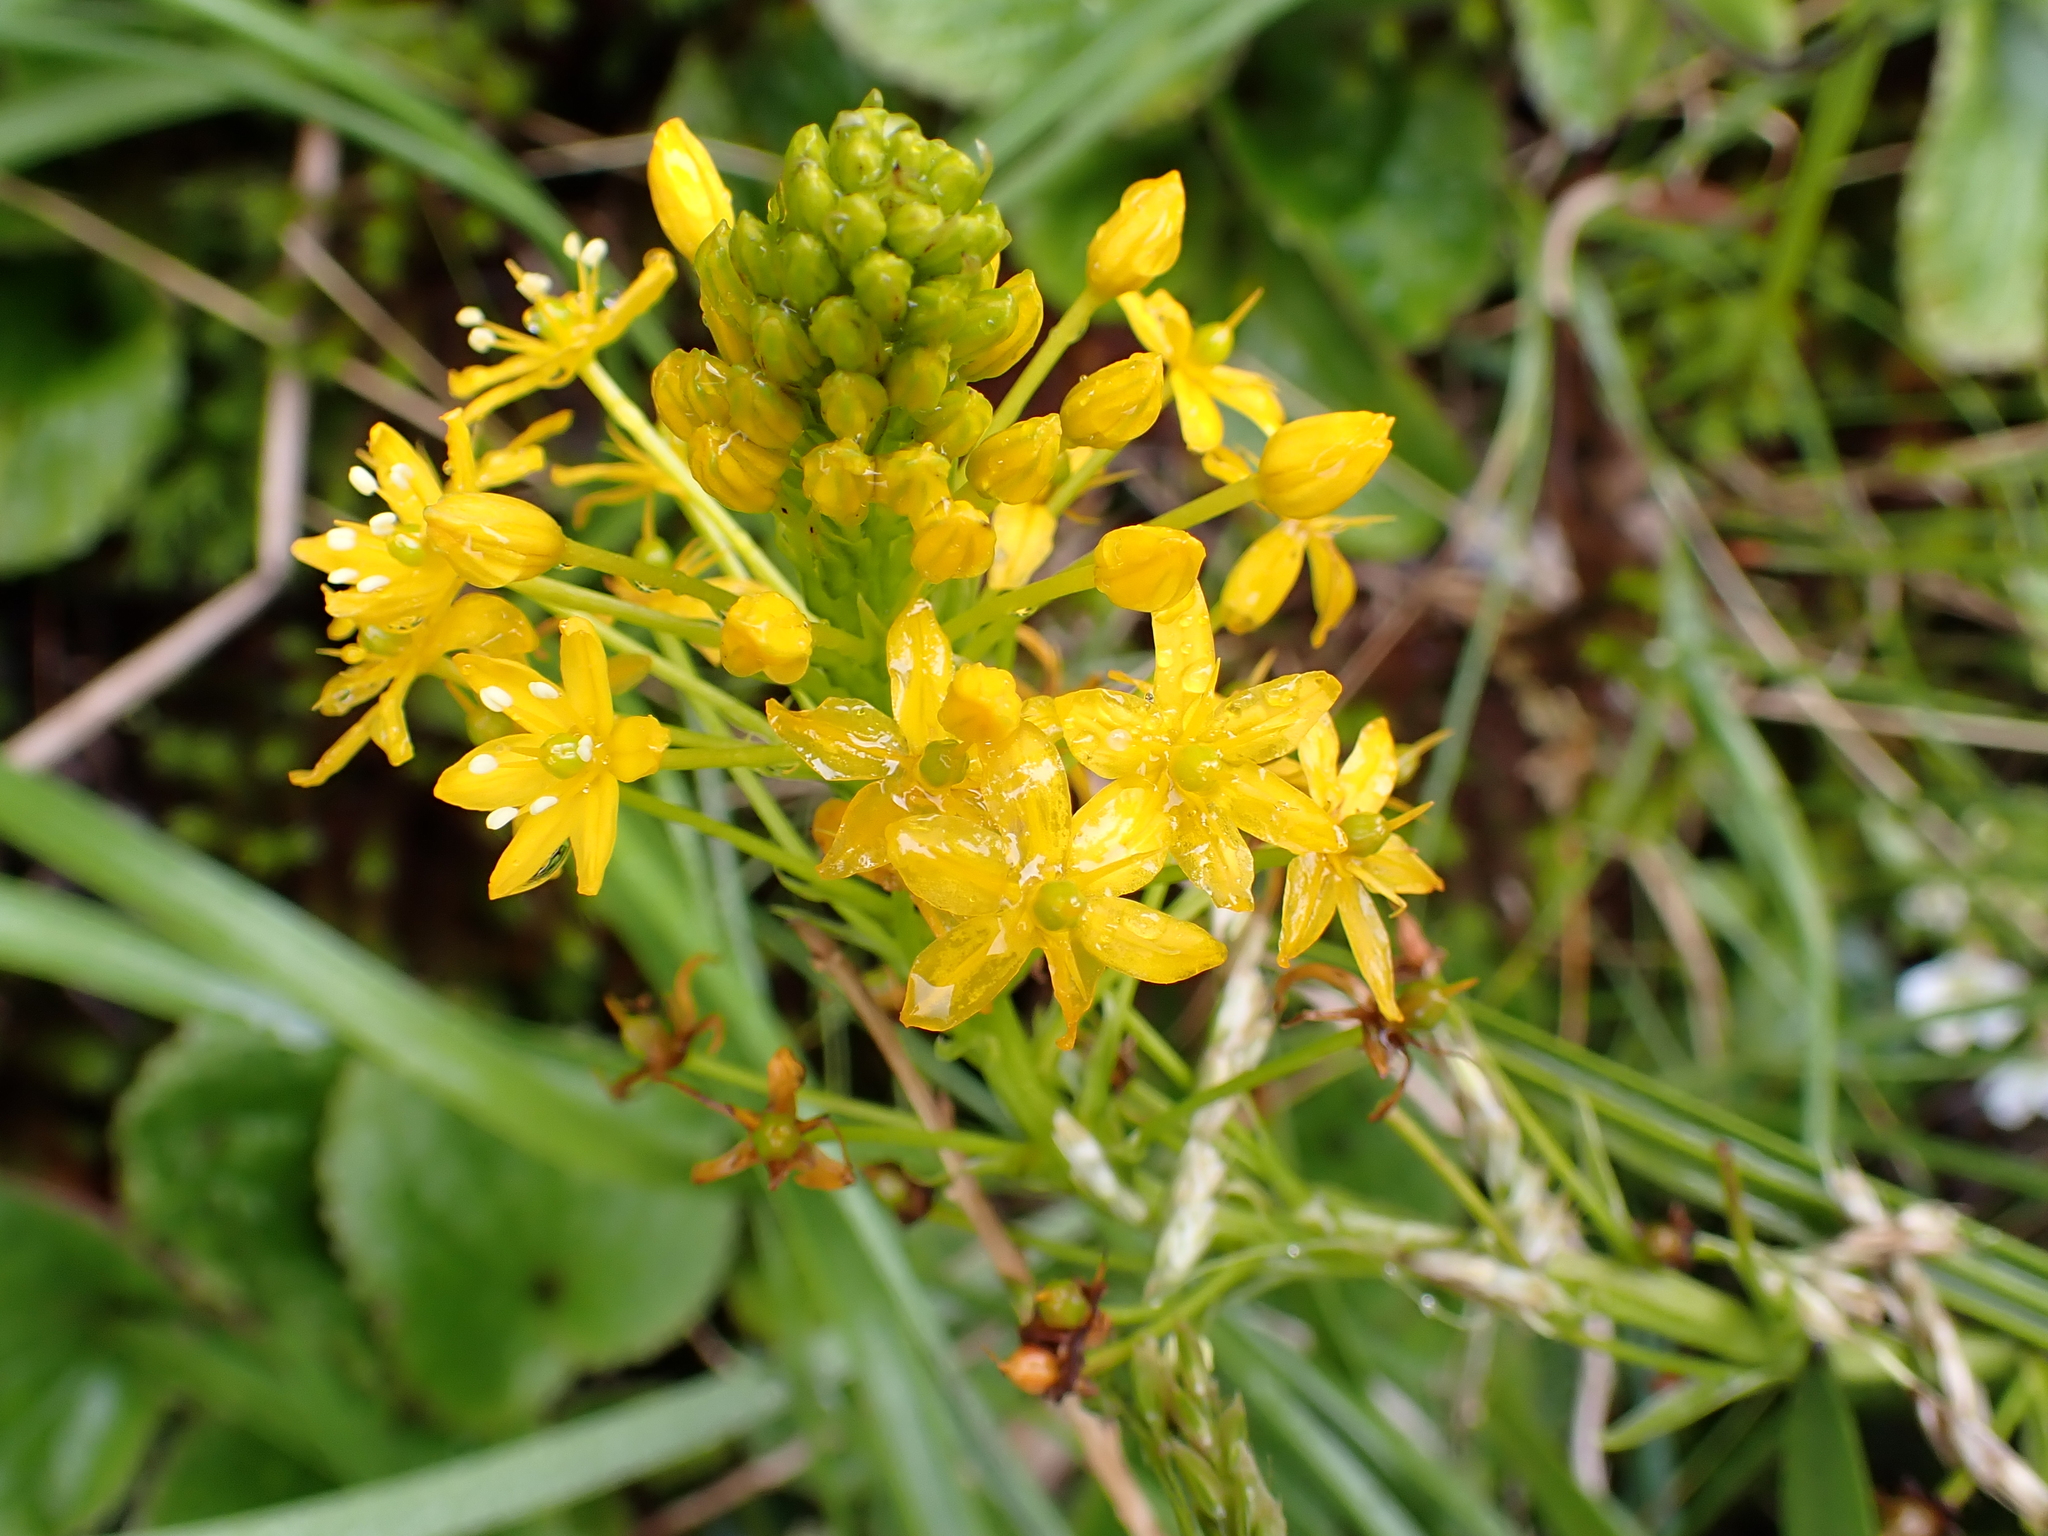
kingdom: Plantae
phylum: Tracheophyta
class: Liliopsida
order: Asparagales
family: Asphodelaceae
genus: Bulbinella
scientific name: Bulbinella hookeri
